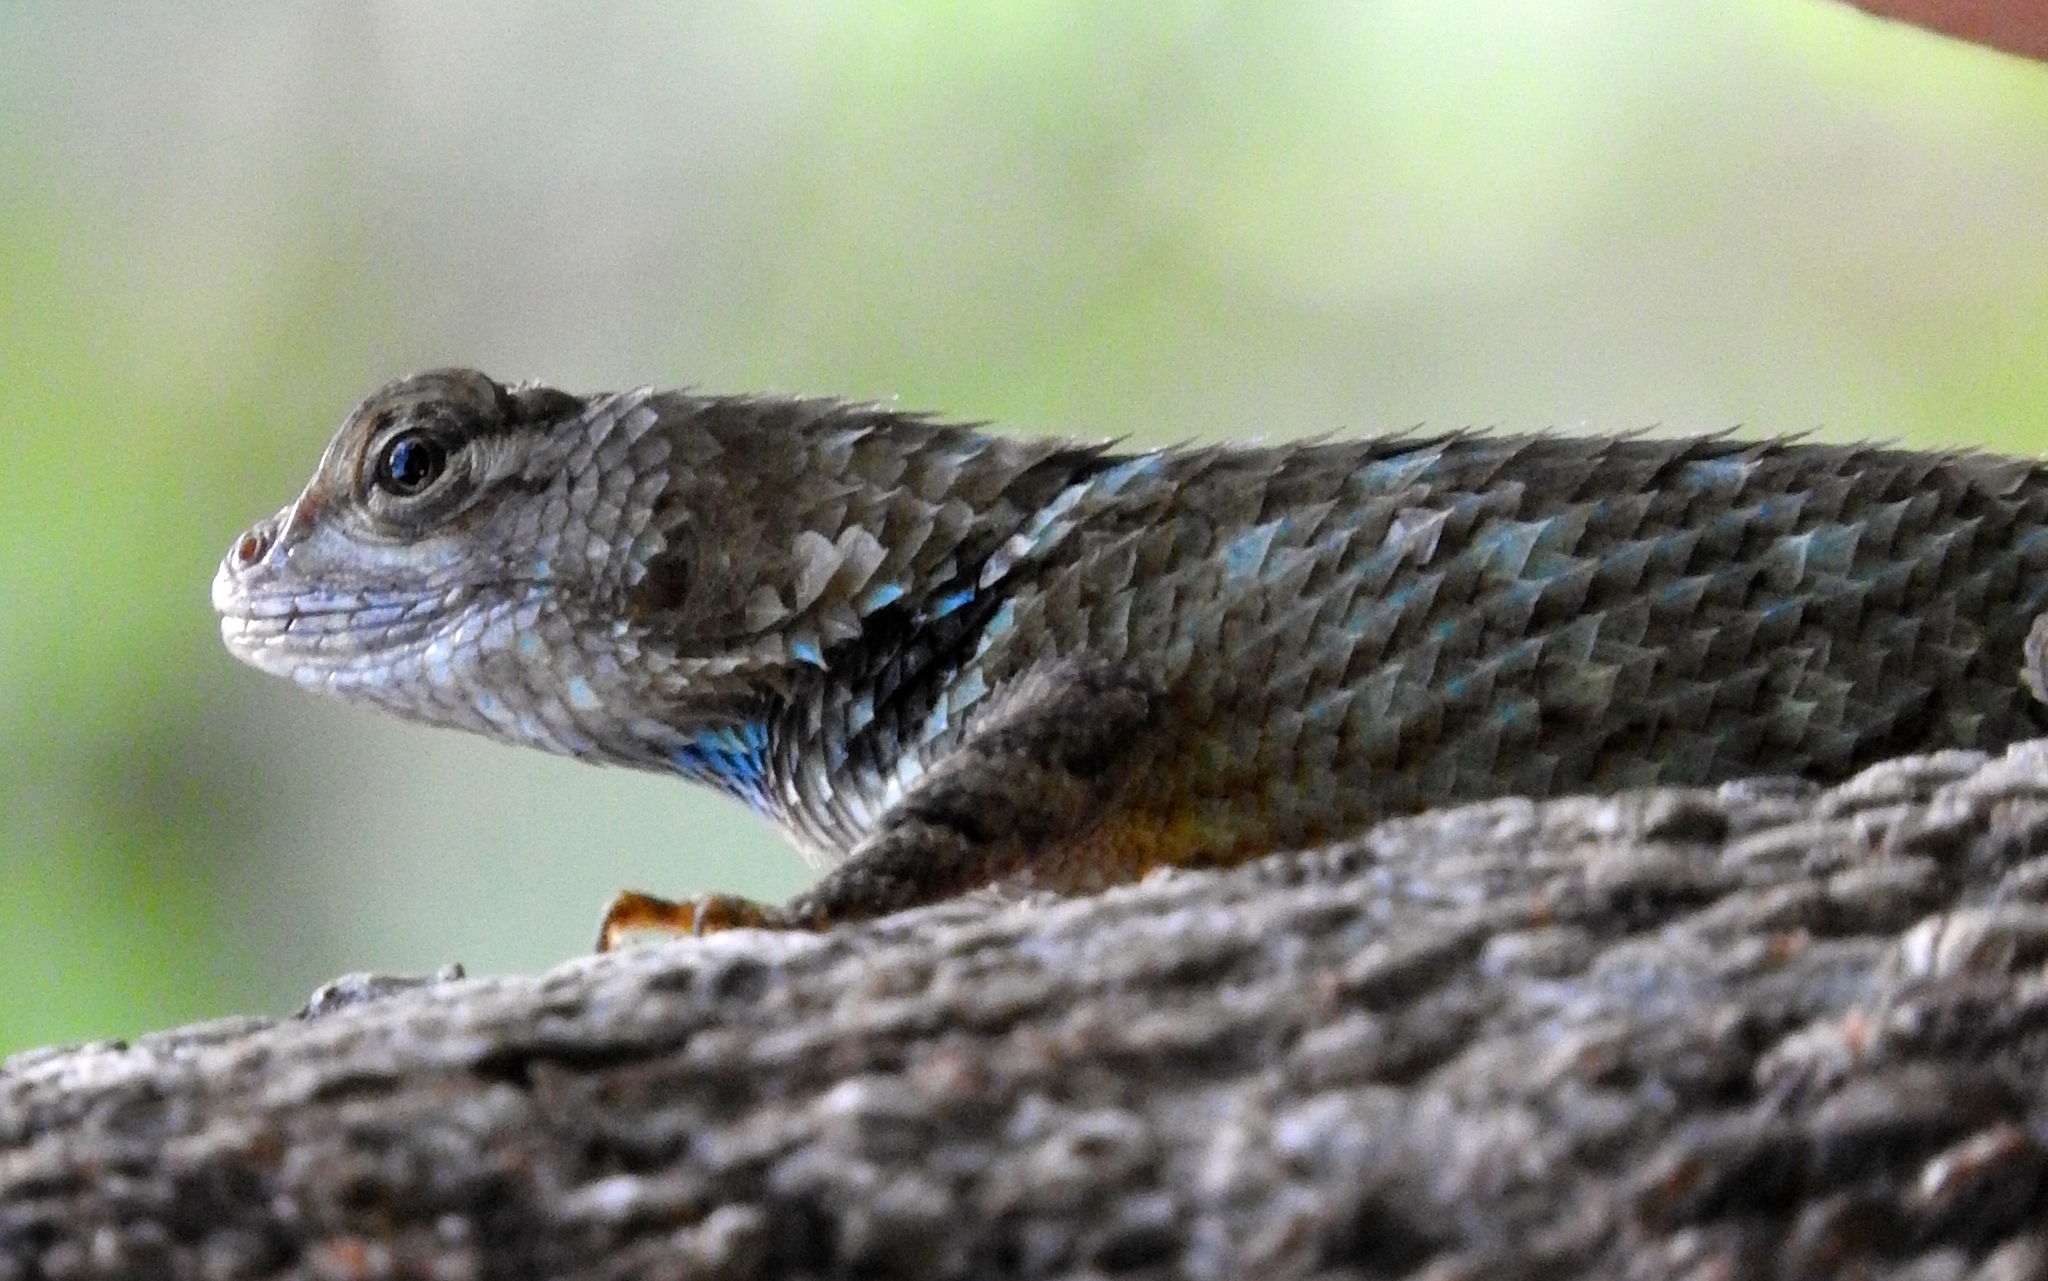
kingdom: Animalia
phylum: Chordata
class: Squamata
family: Phrynosomatidae
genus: Sceloporus
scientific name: Sceloporus clarkii
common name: Clark's spiny lizard
